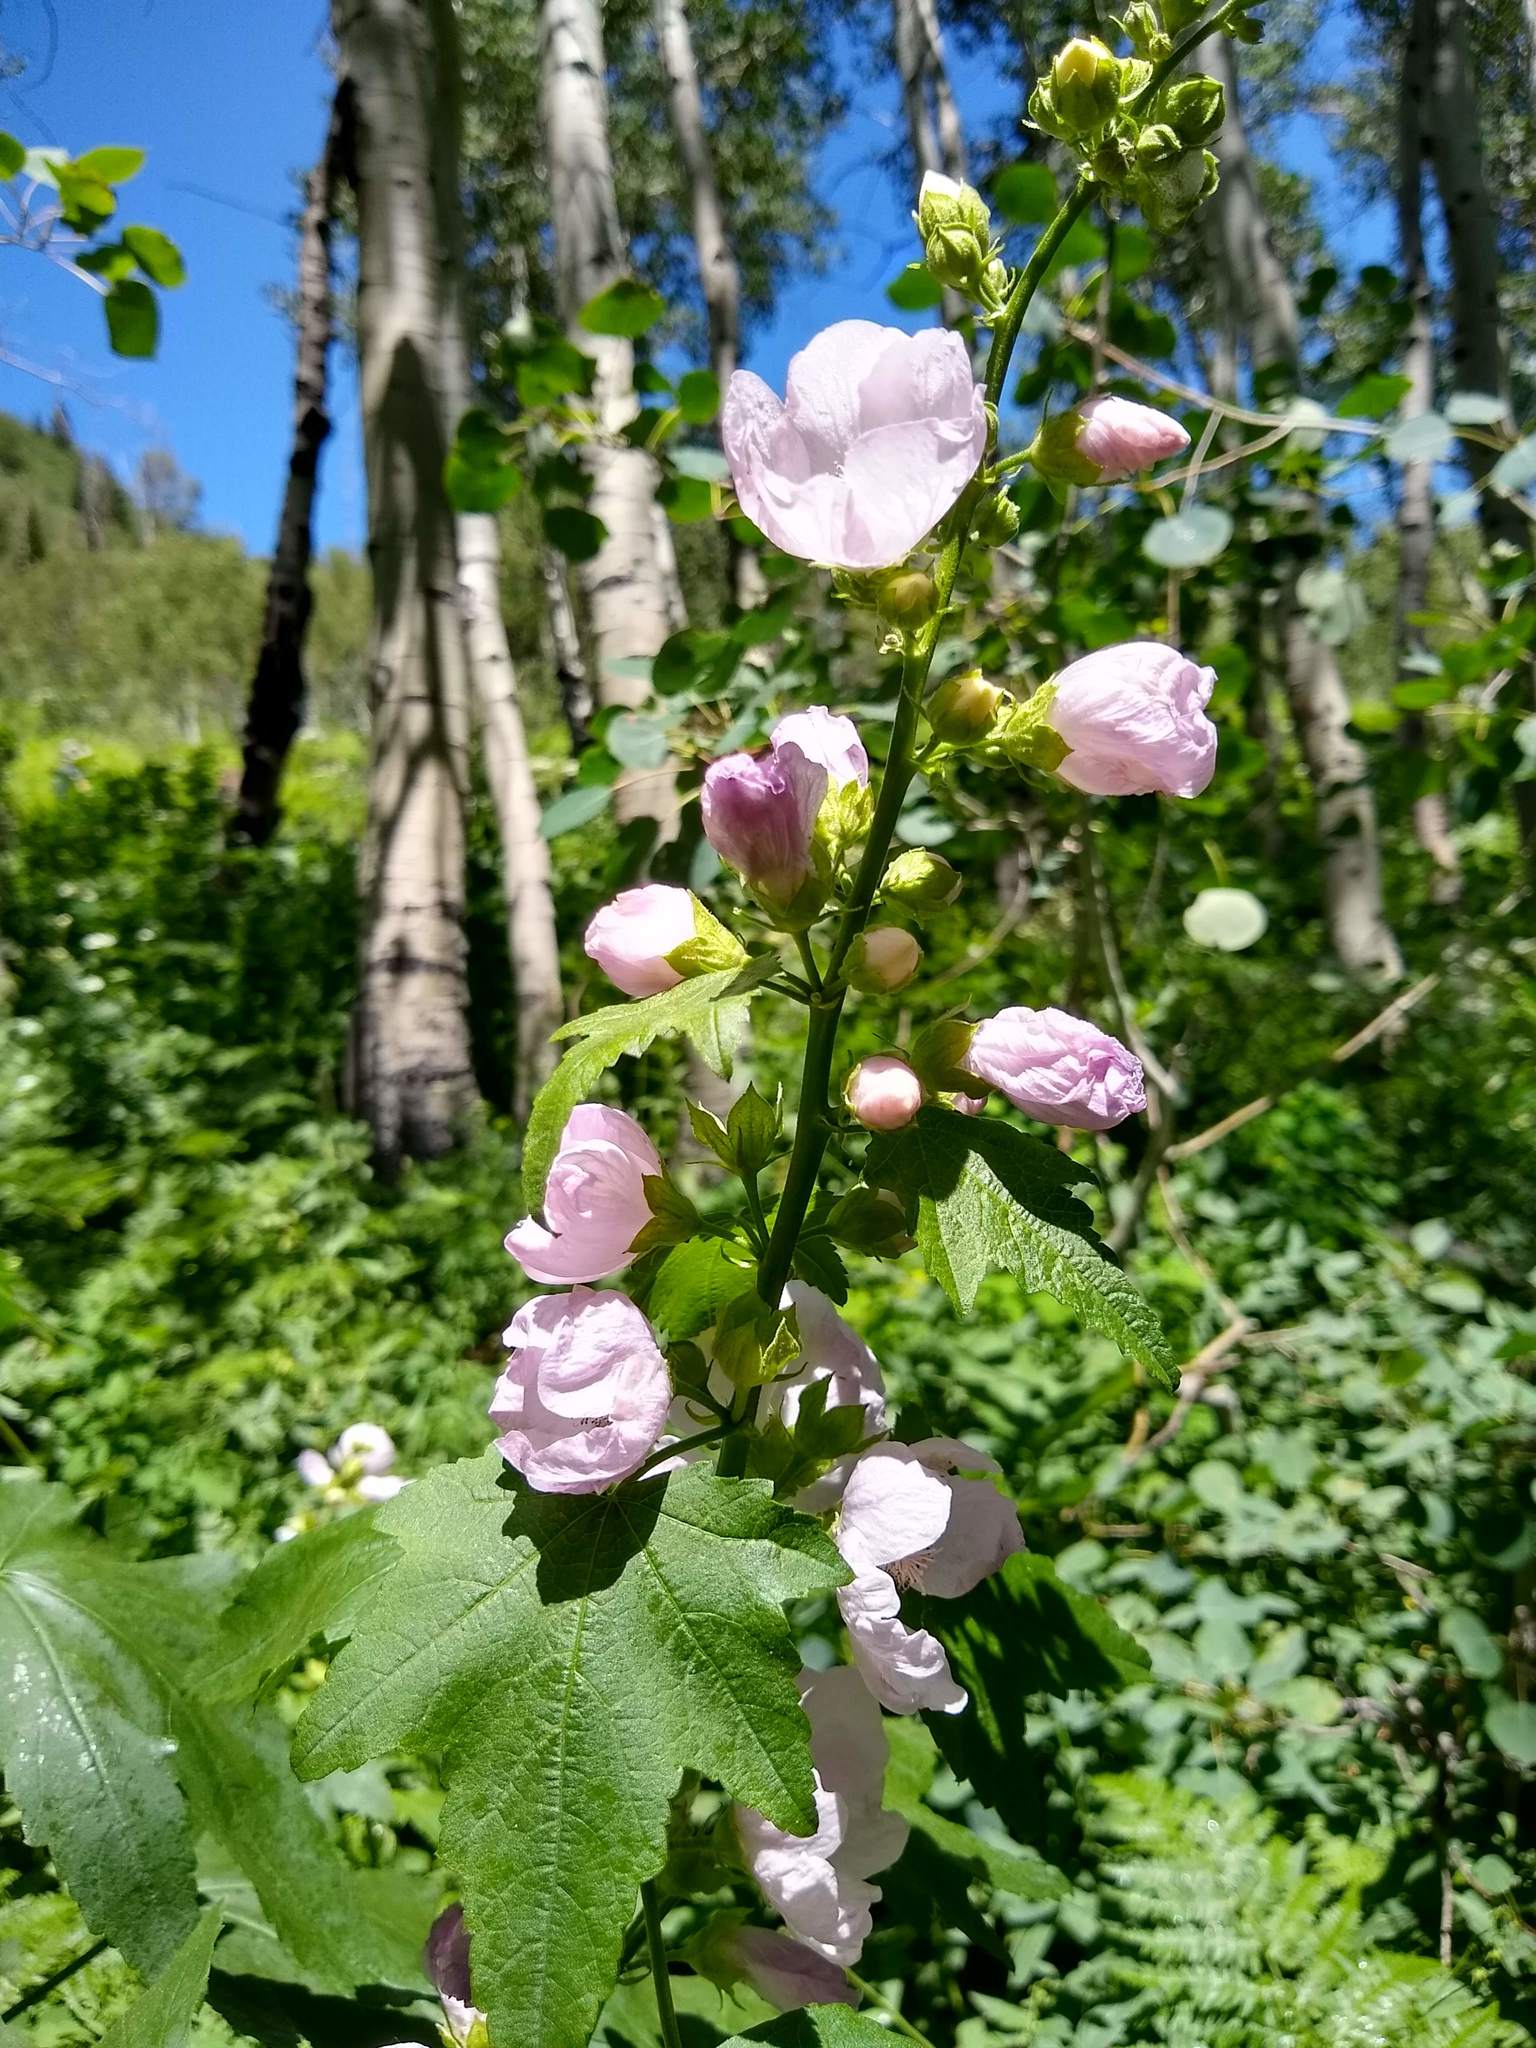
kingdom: Plantae
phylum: Tracheophyta
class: Magnoliopsida
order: Malvales
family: Malvaceae
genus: Iliamna
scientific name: Iliamna rivularis
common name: Wild hollyhock
